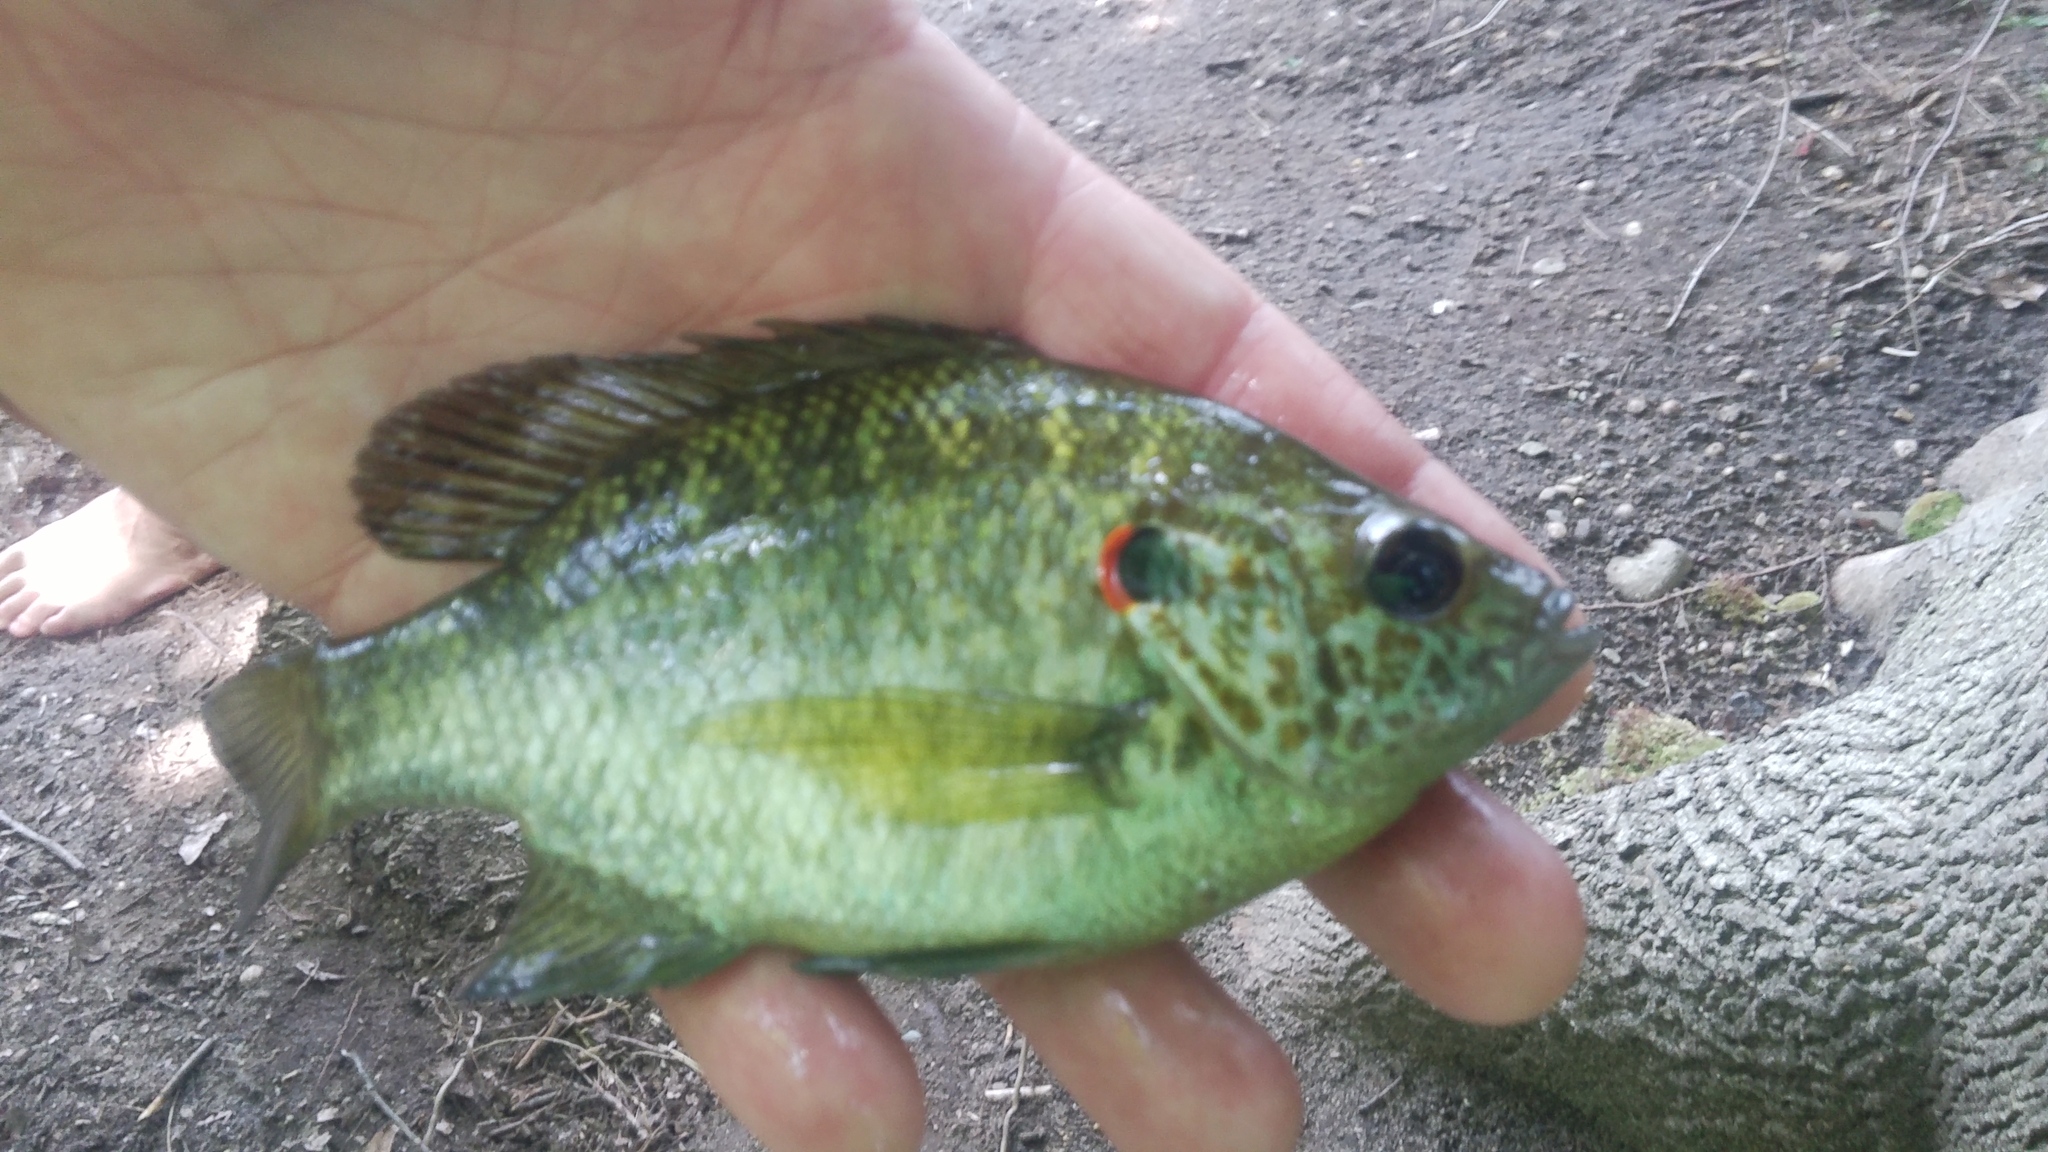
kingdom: Animalia
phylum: Chordata
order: Perciformes
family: Centrarchidae
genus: Lepomis
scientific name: Lepomis microlophus
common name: Redear sunfish
